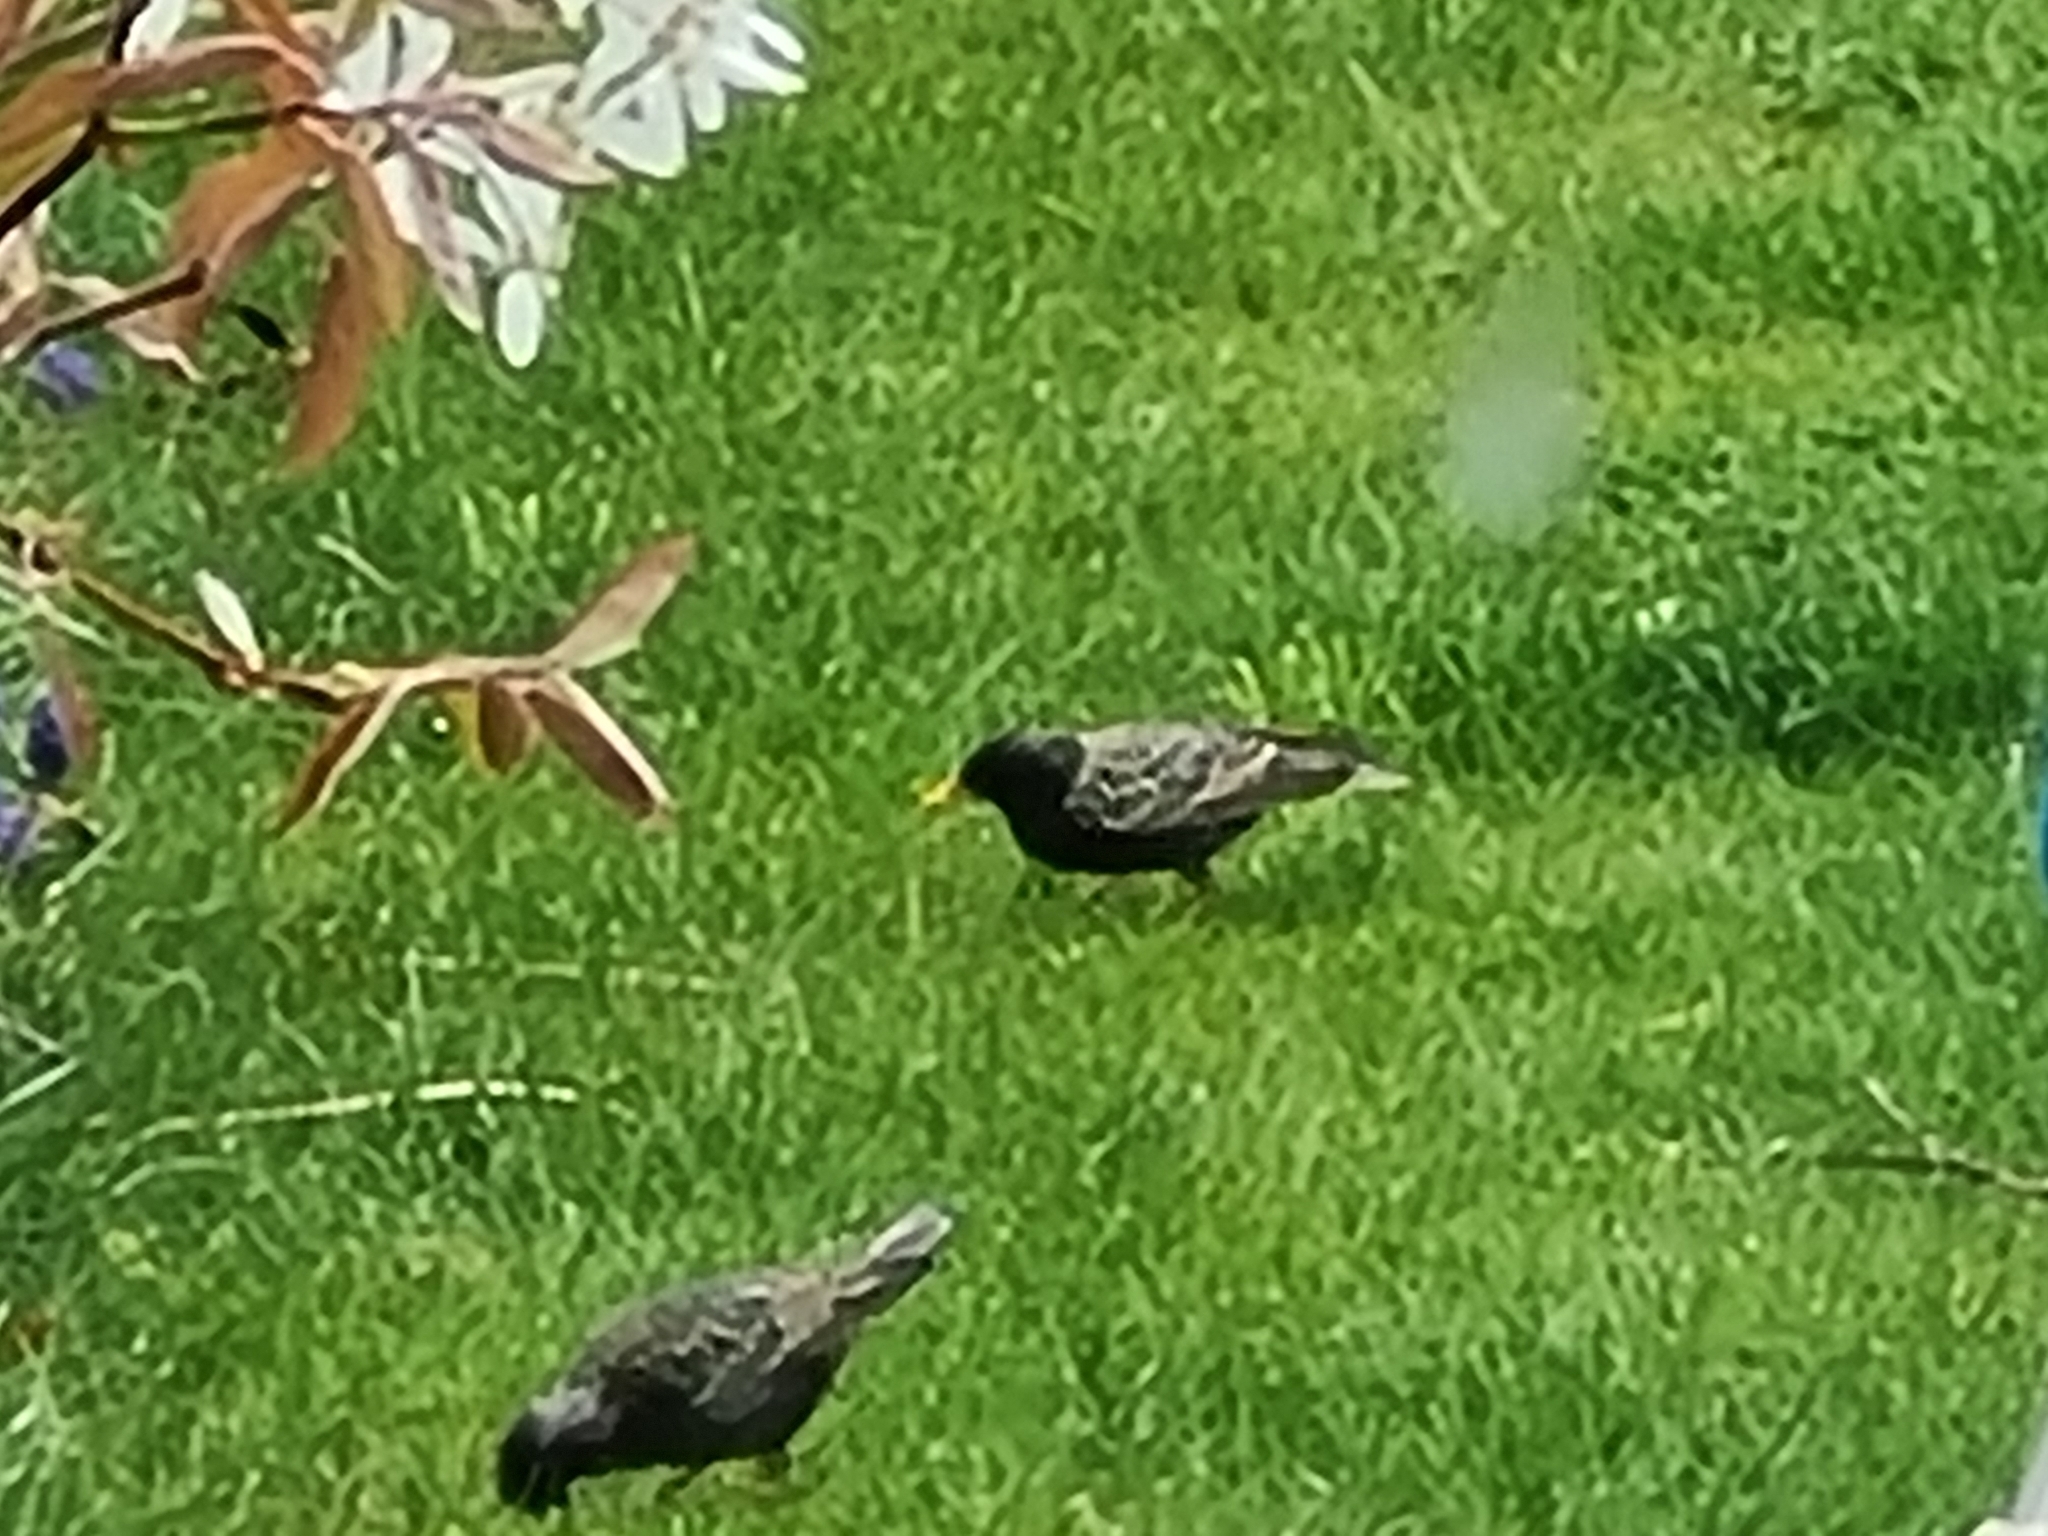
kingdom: Animalia
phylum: Chordata
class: Aves
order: Passeriformes
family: Sturnidae
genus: Sturnus
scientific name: Sturnus vulgaris
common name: Common starling
